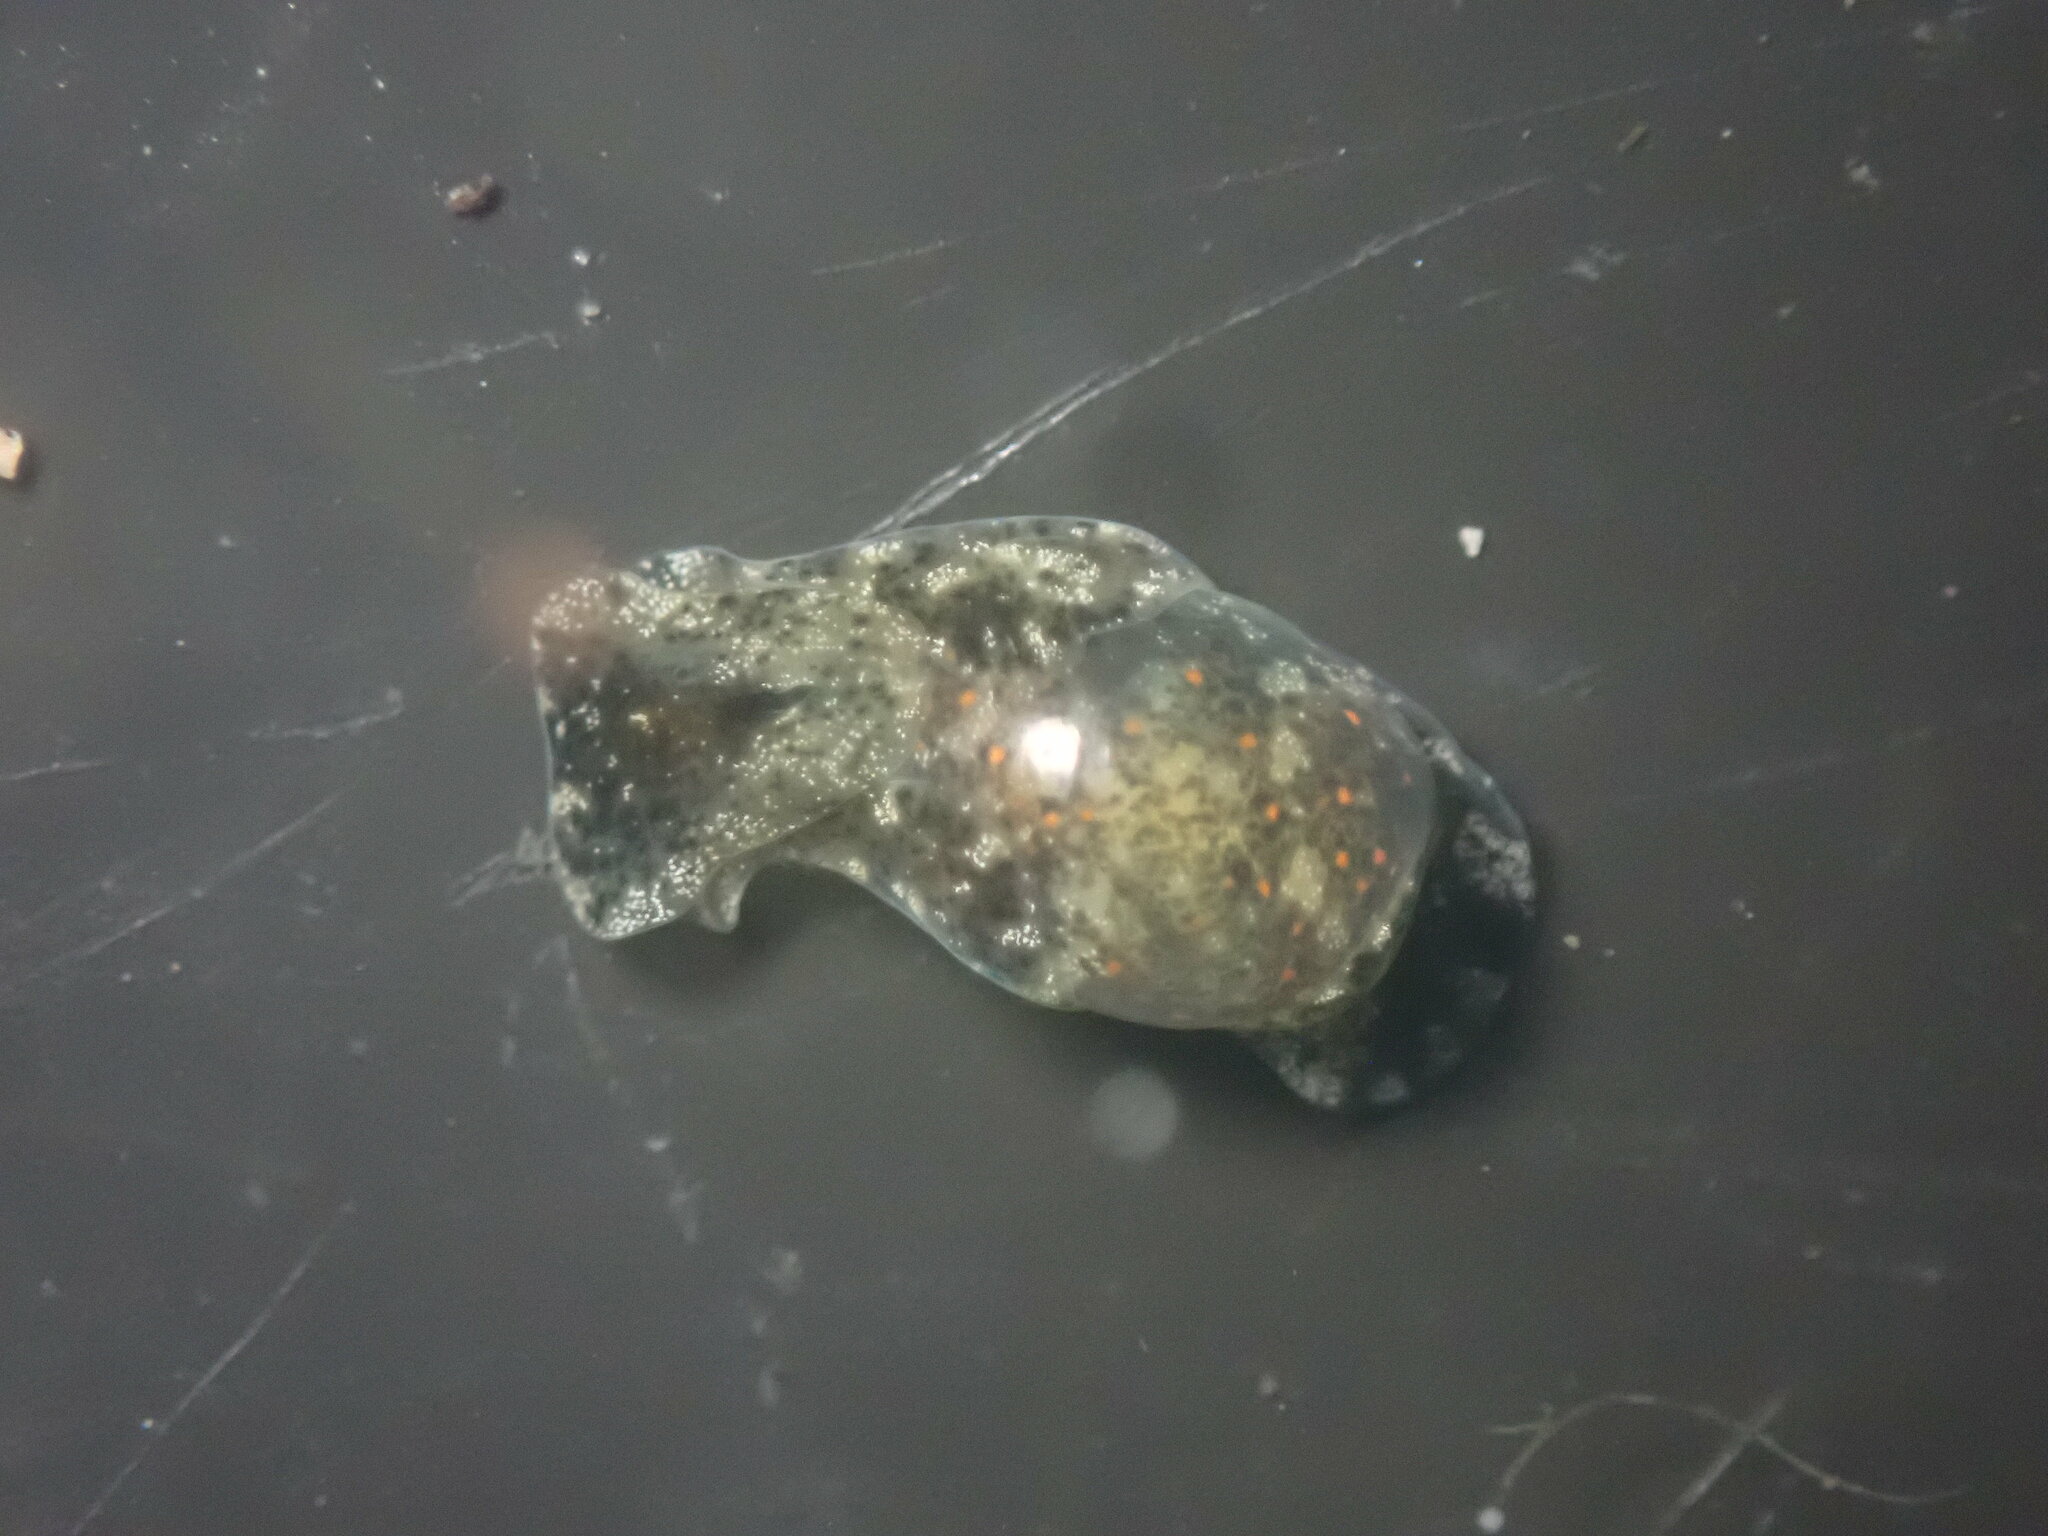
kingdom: Animalia
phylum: Mollusca
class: Gastropoda
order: Cephalaspidea
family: Haminoeidae
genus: Haloa
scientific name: Haloa japonica
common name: Japanese bubble snail
